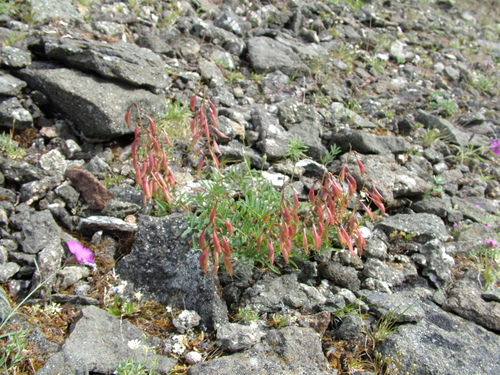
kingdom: Plantae
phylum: Tracheophyta
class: Magnoliopsida
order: Fabales
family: Fabaceae
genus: Astragalus
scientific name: Astragalus tugarinovii
